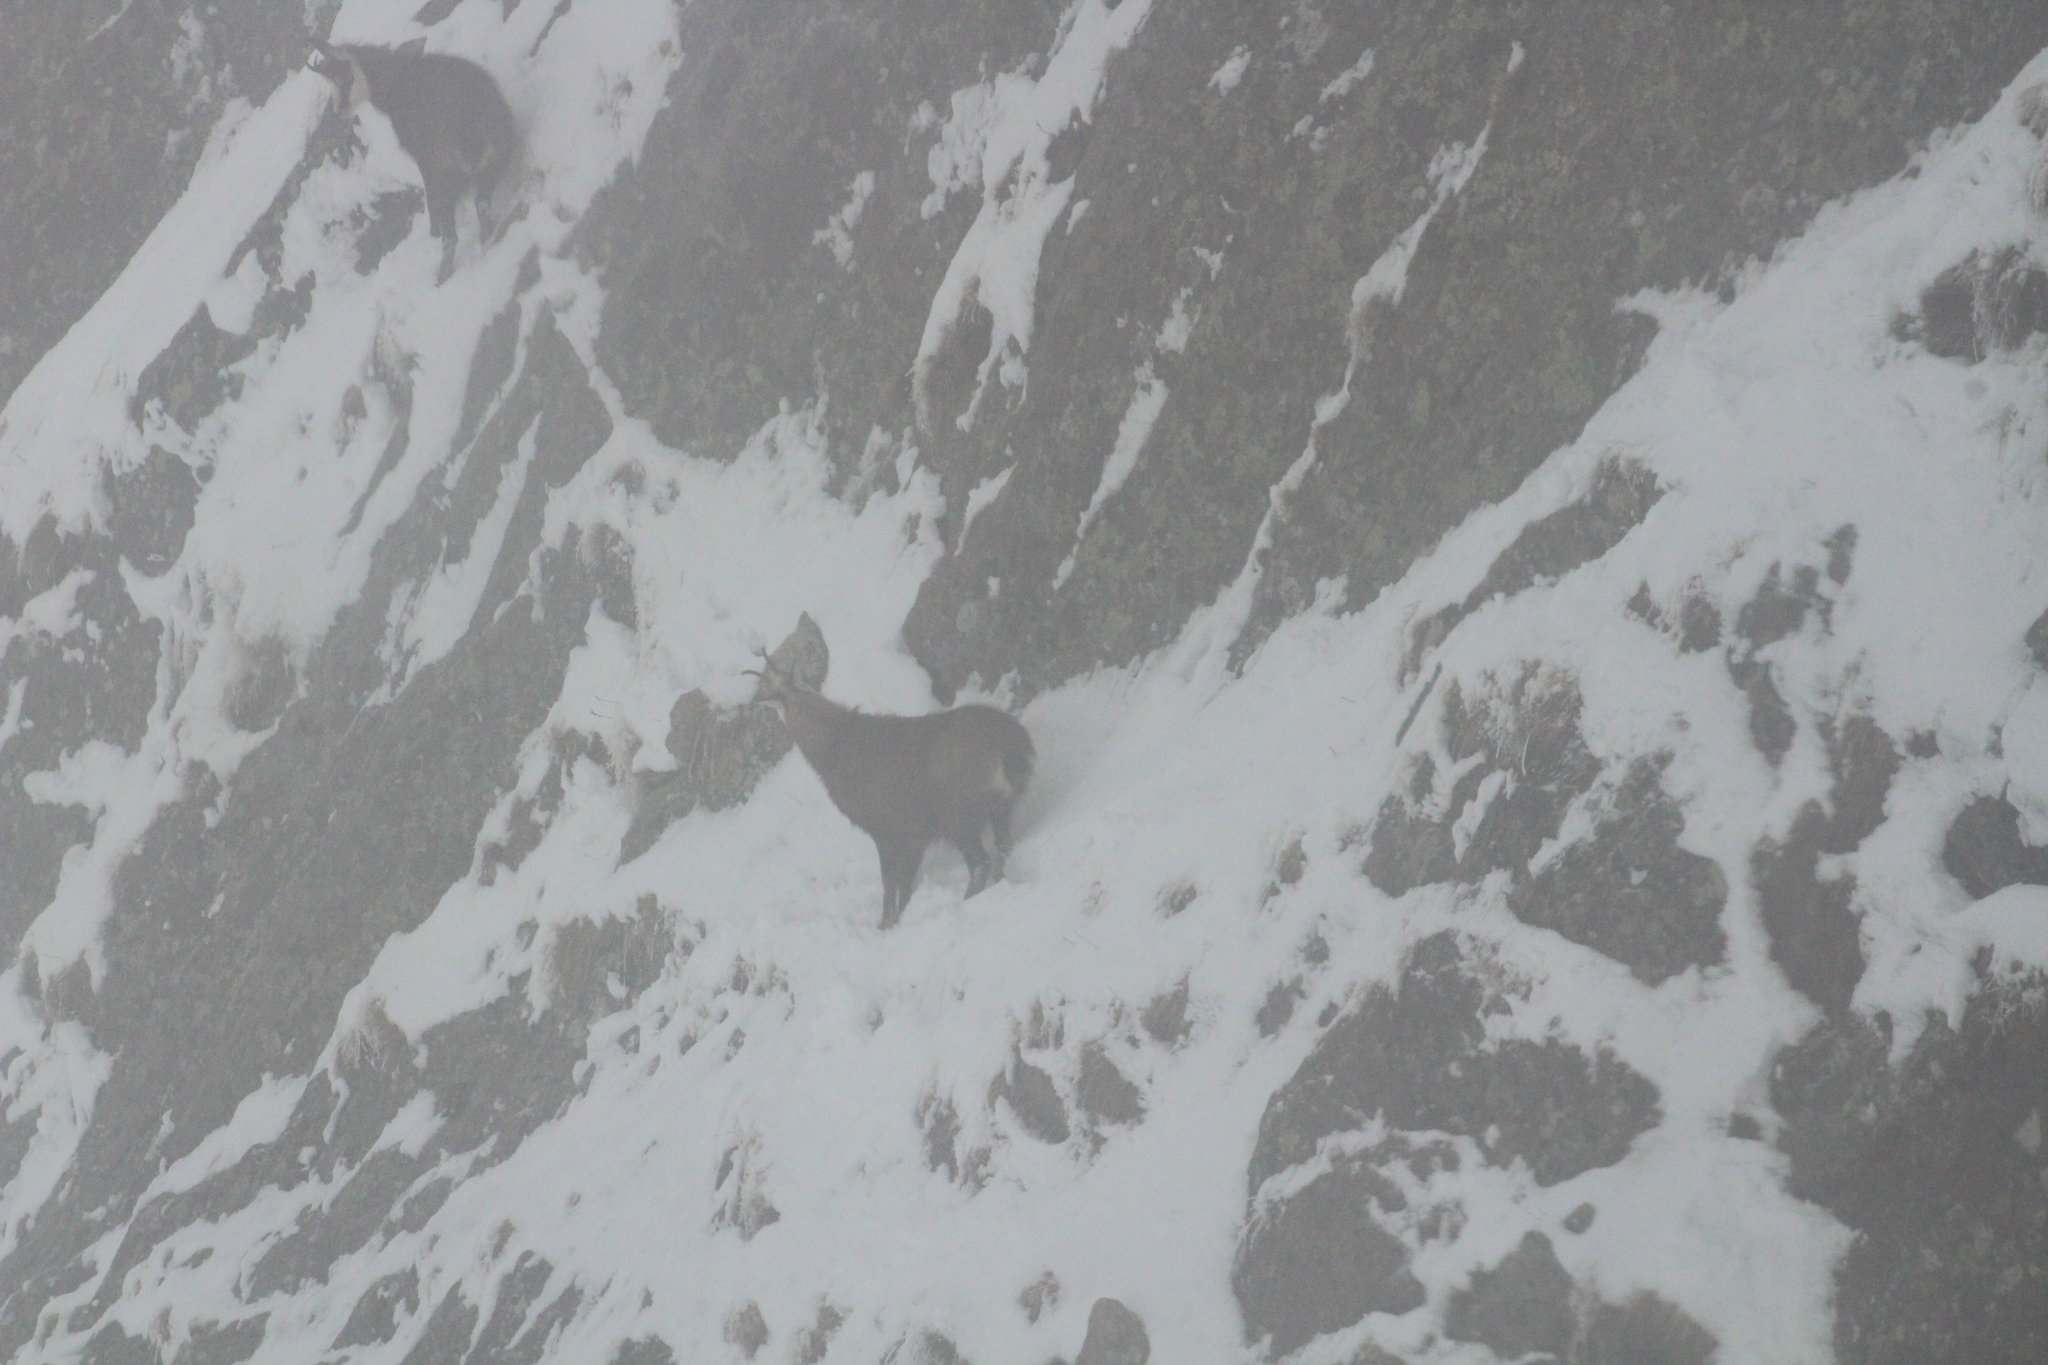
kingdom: Animalia
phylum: Chordata
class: Mammalia
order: Artiodactyla
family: Bovidae
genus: Rupicapra
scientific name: Rupicapra rupicapra
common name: Chamois
